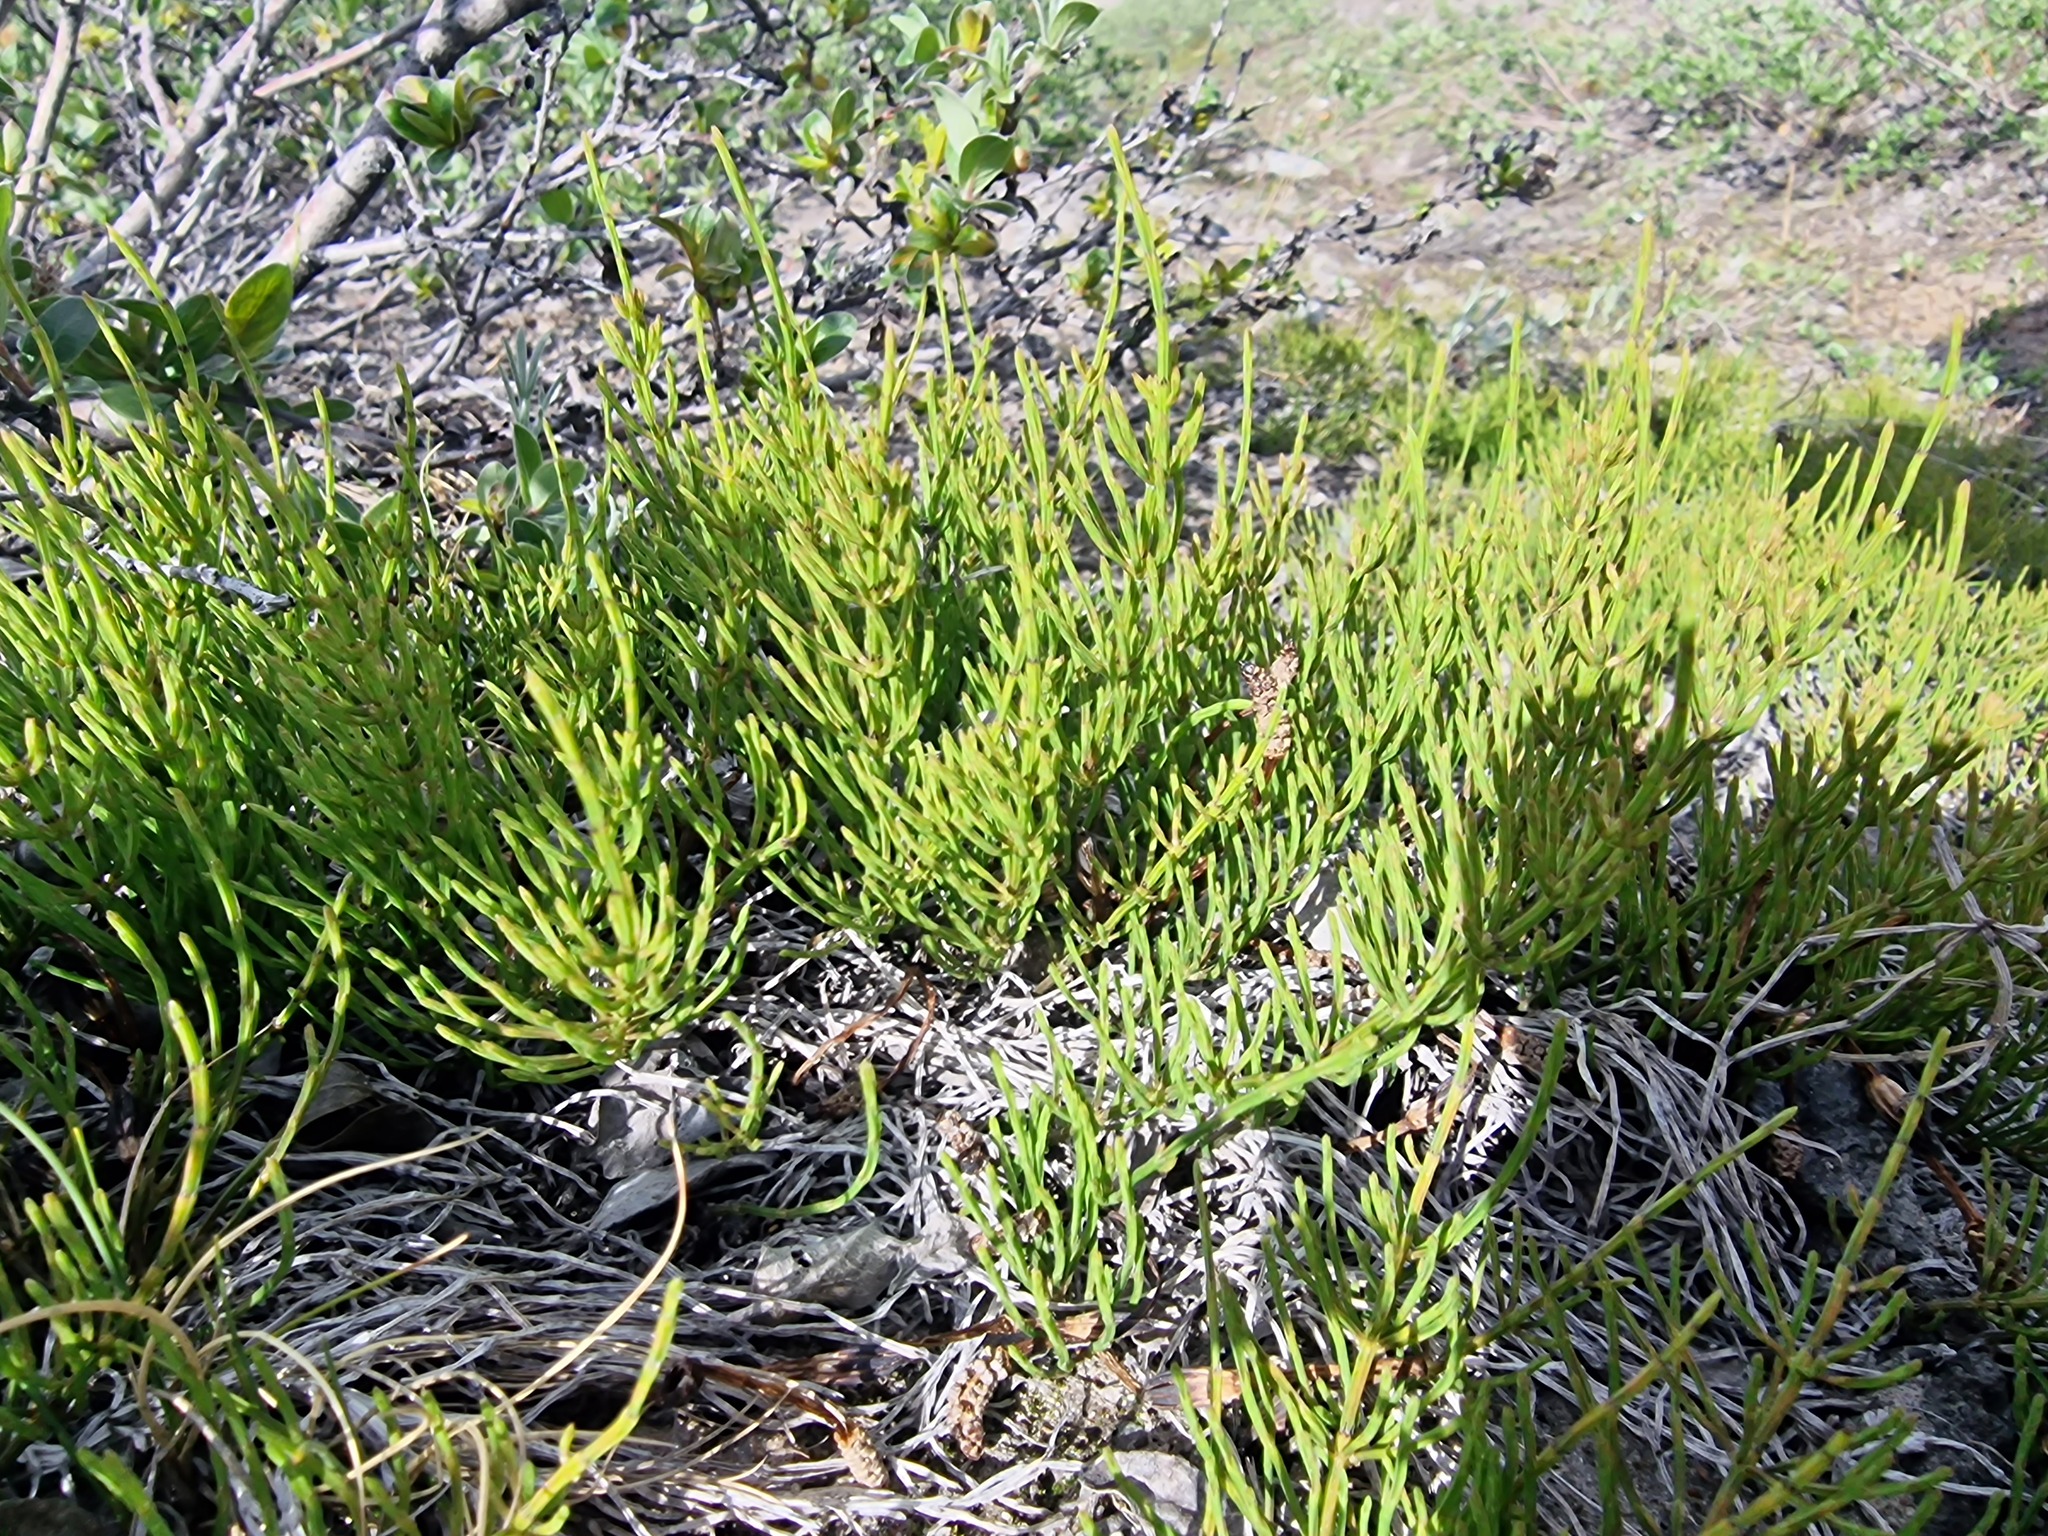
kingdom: Plantae
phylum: Tracheophyta
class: Polypodiopsida
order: Equisetales
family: Equisetaceae
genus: Equisetum
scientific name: Equisetum arvense
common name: Field horsetail
